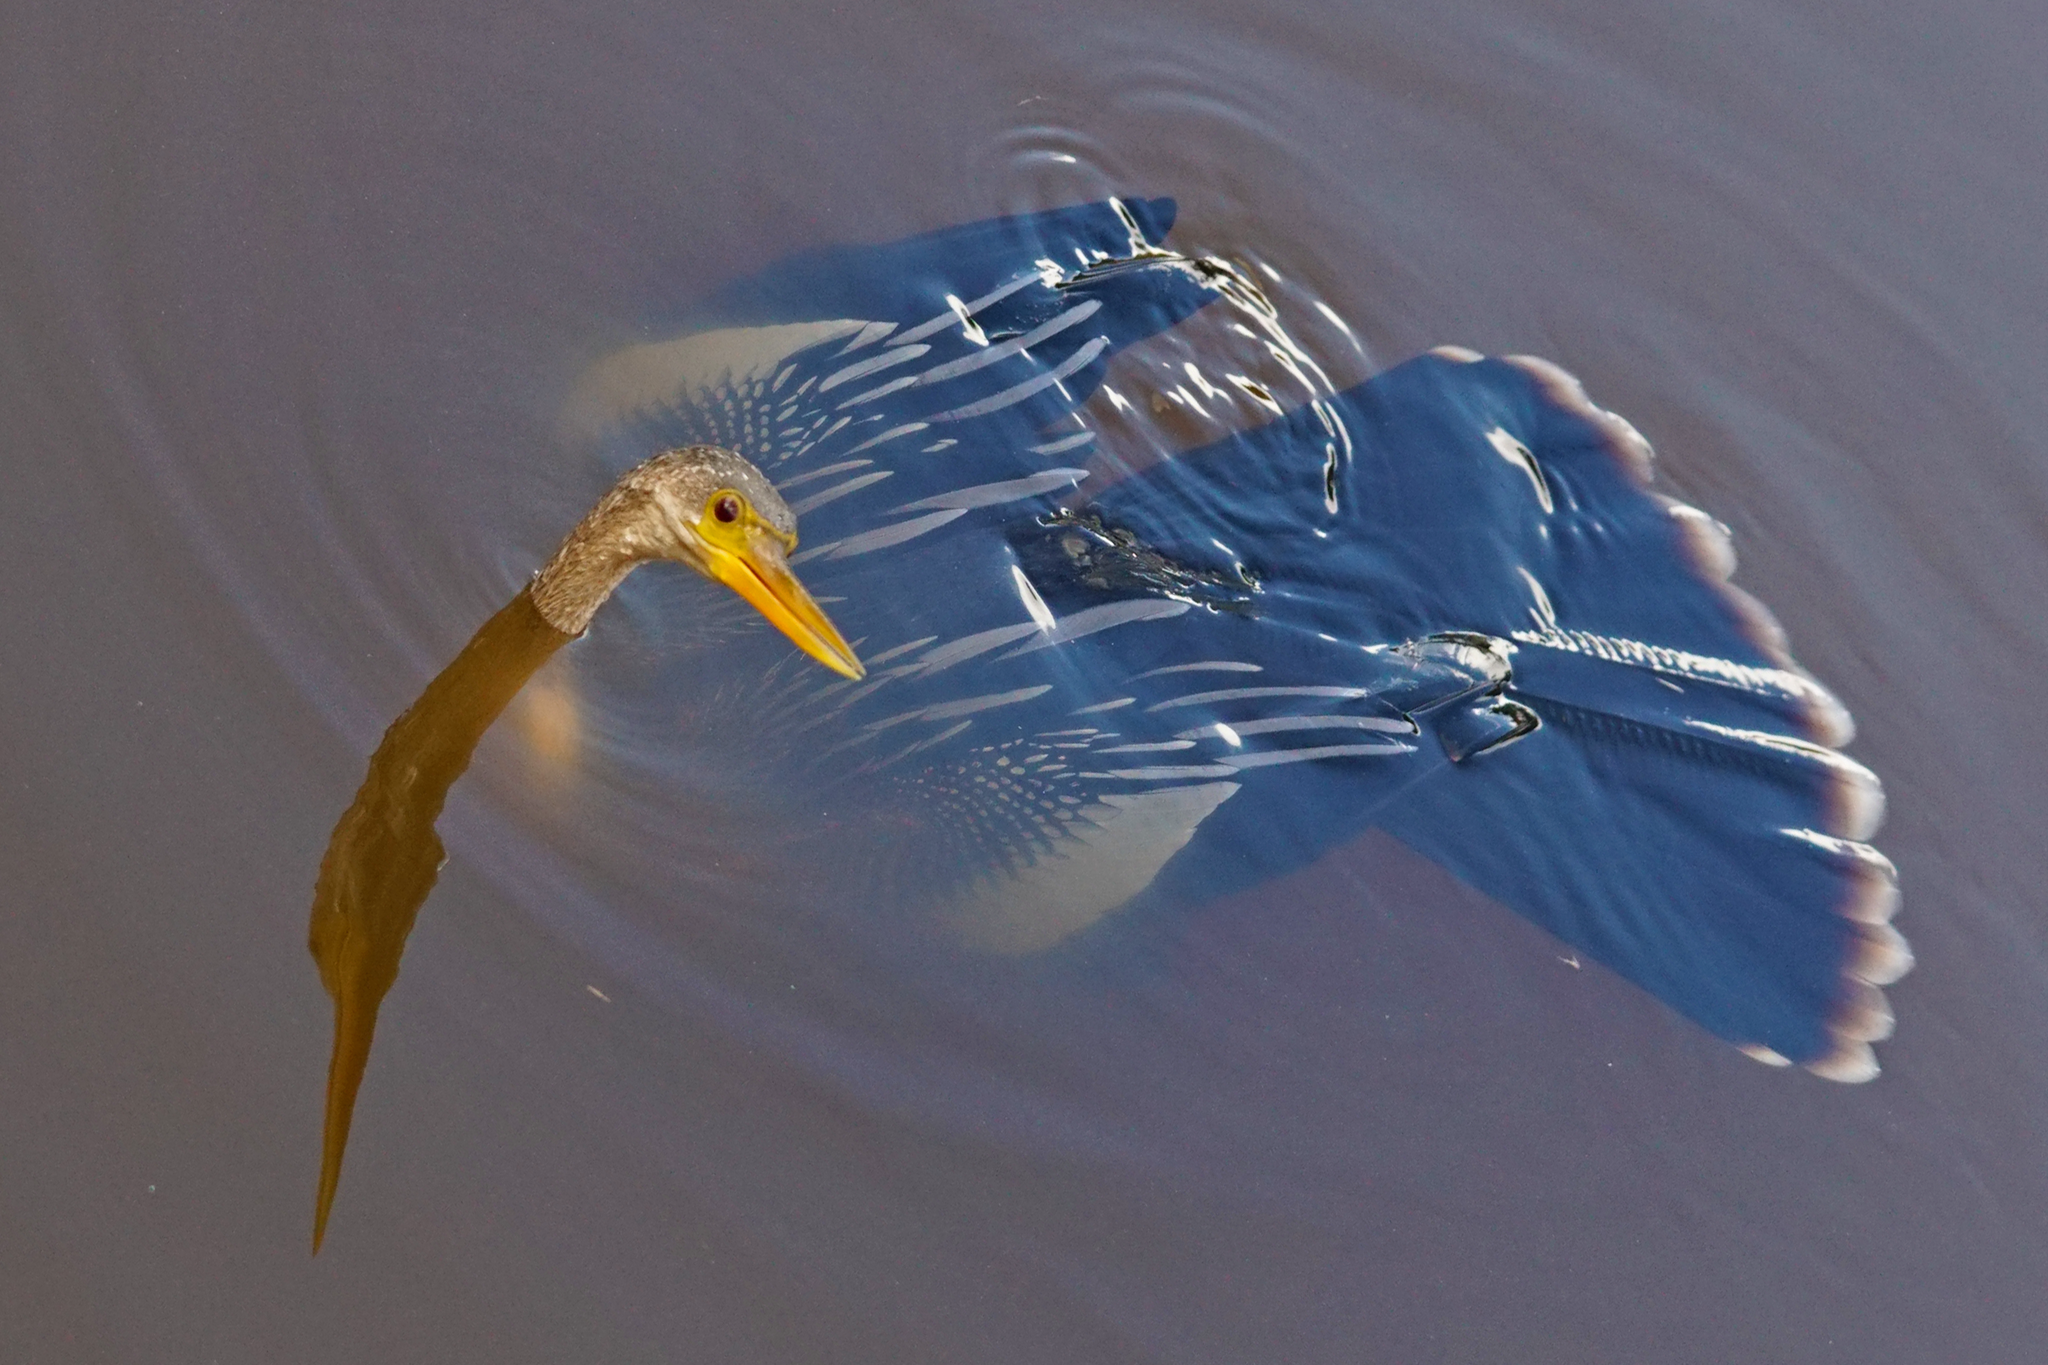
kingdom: Animalia
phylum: Chordata
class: Aves
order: Suliformes
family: Anhingidae
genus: Anhinga
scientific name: Anhinga anhinga
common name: Anhinga
